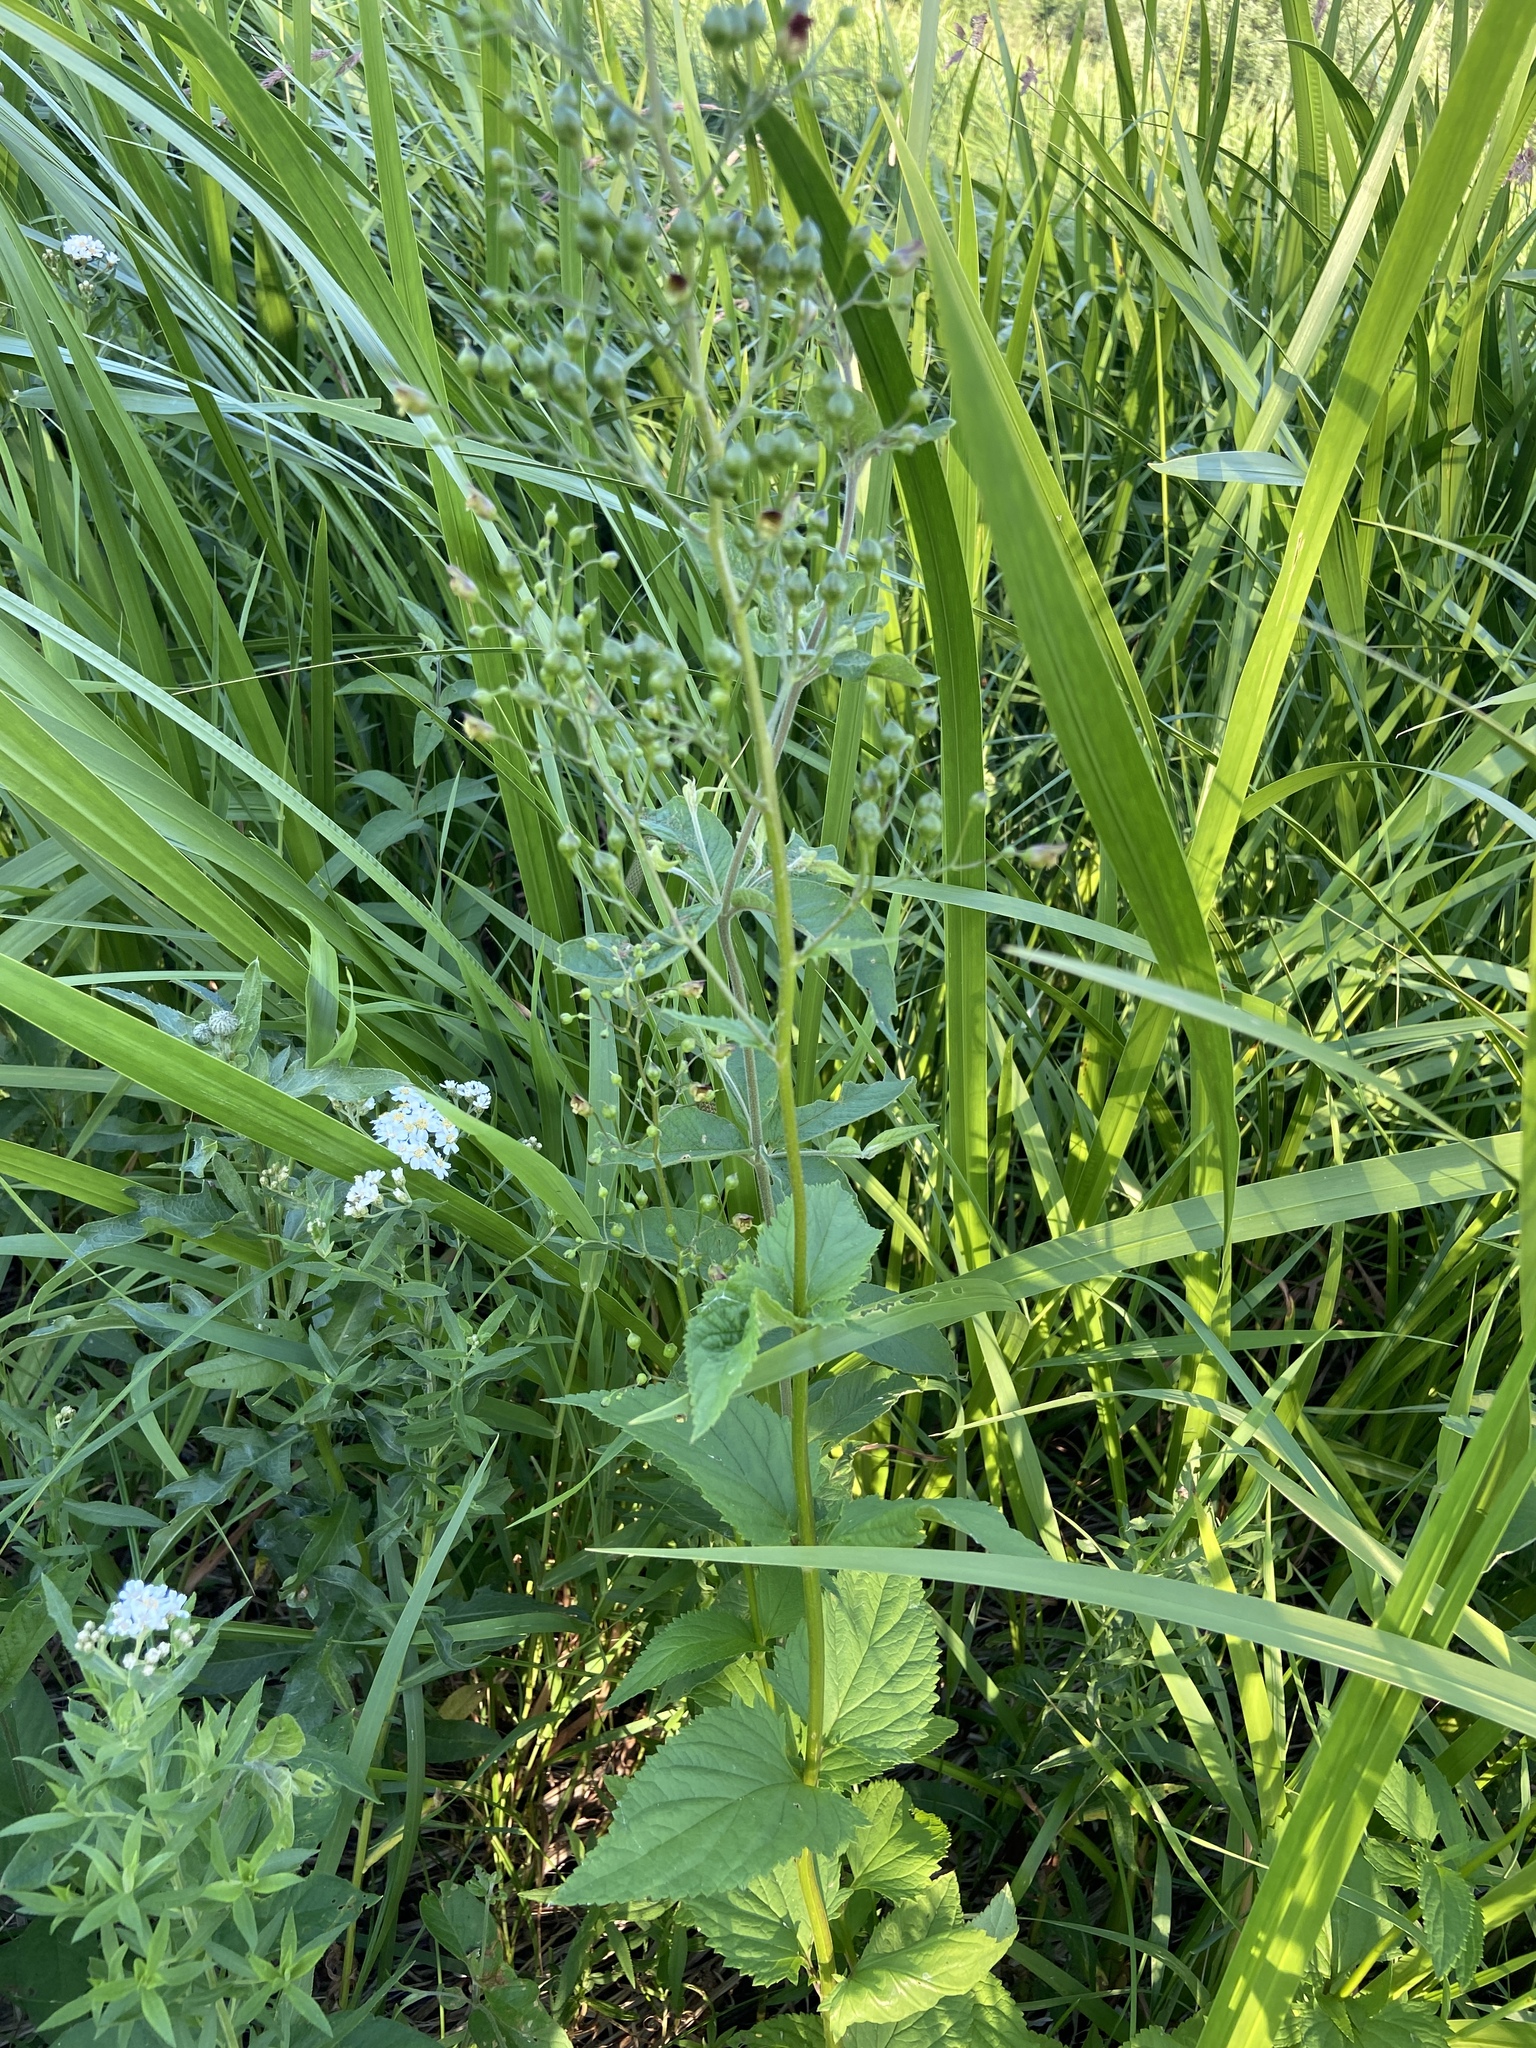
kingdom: Plantae
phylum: Tracheophyta
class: Magnoliopsida
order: Lamiales
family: Scrophulariaceae
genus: Scrophularia
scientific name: Scrophularia nodosa
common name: Common figwort
